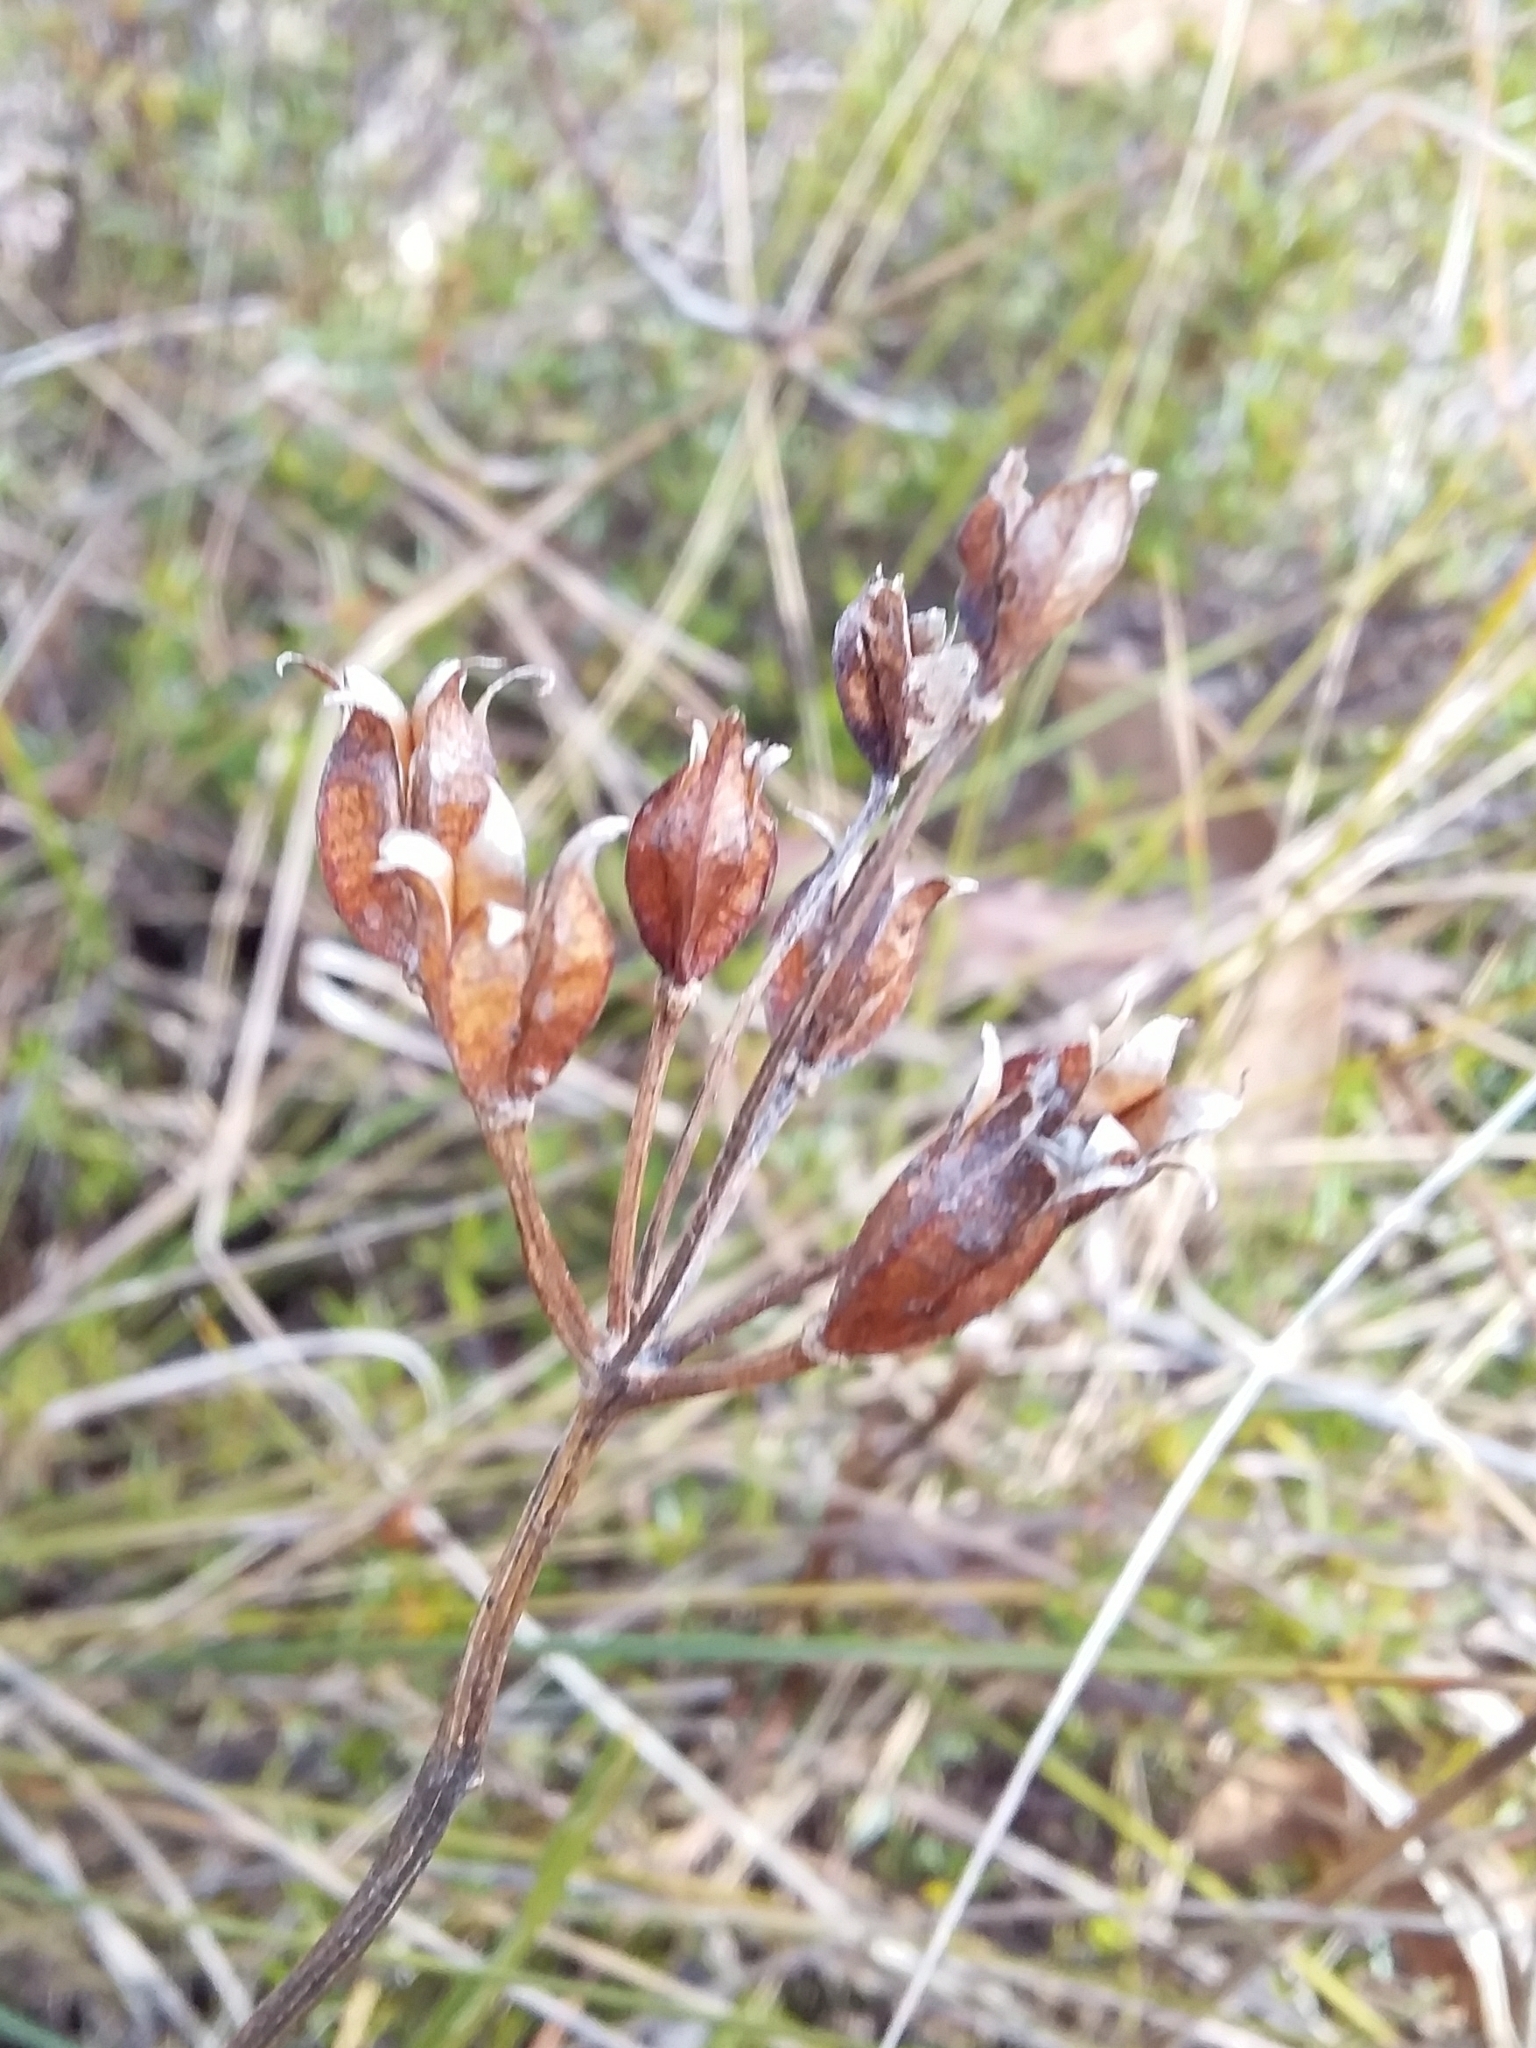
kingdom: Plantae
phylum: Tracheophyta
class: Liliopsida
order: Liliales
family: Colchicaceae
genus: Burchardia
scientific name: Burchardia umbellata
